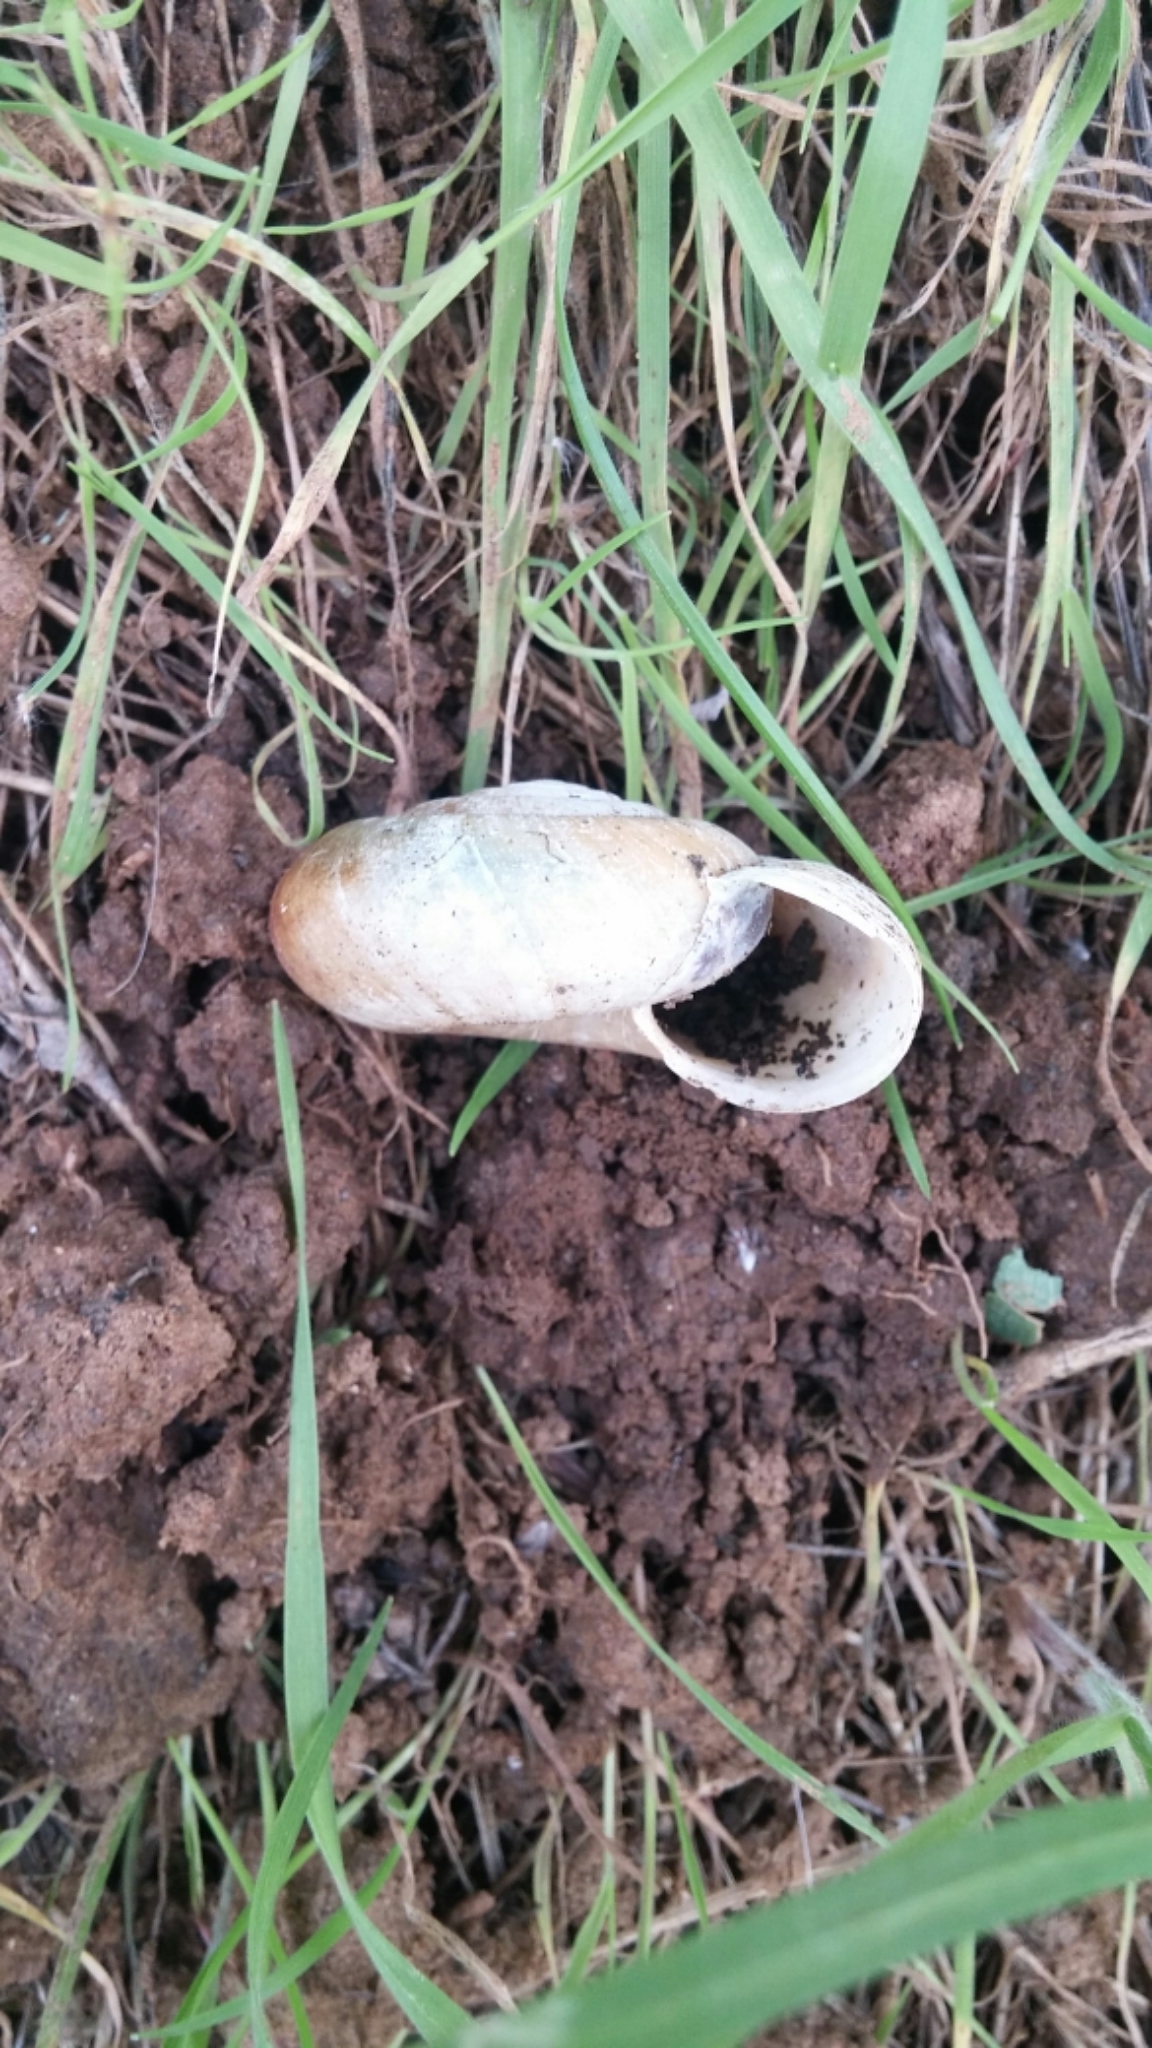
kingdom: Animalia
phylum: Mollusca
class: Gastropoda
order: Stylommatophora
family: Megomphicidae
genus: Glyptostoma
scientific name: Glyptostoma newberryanum
